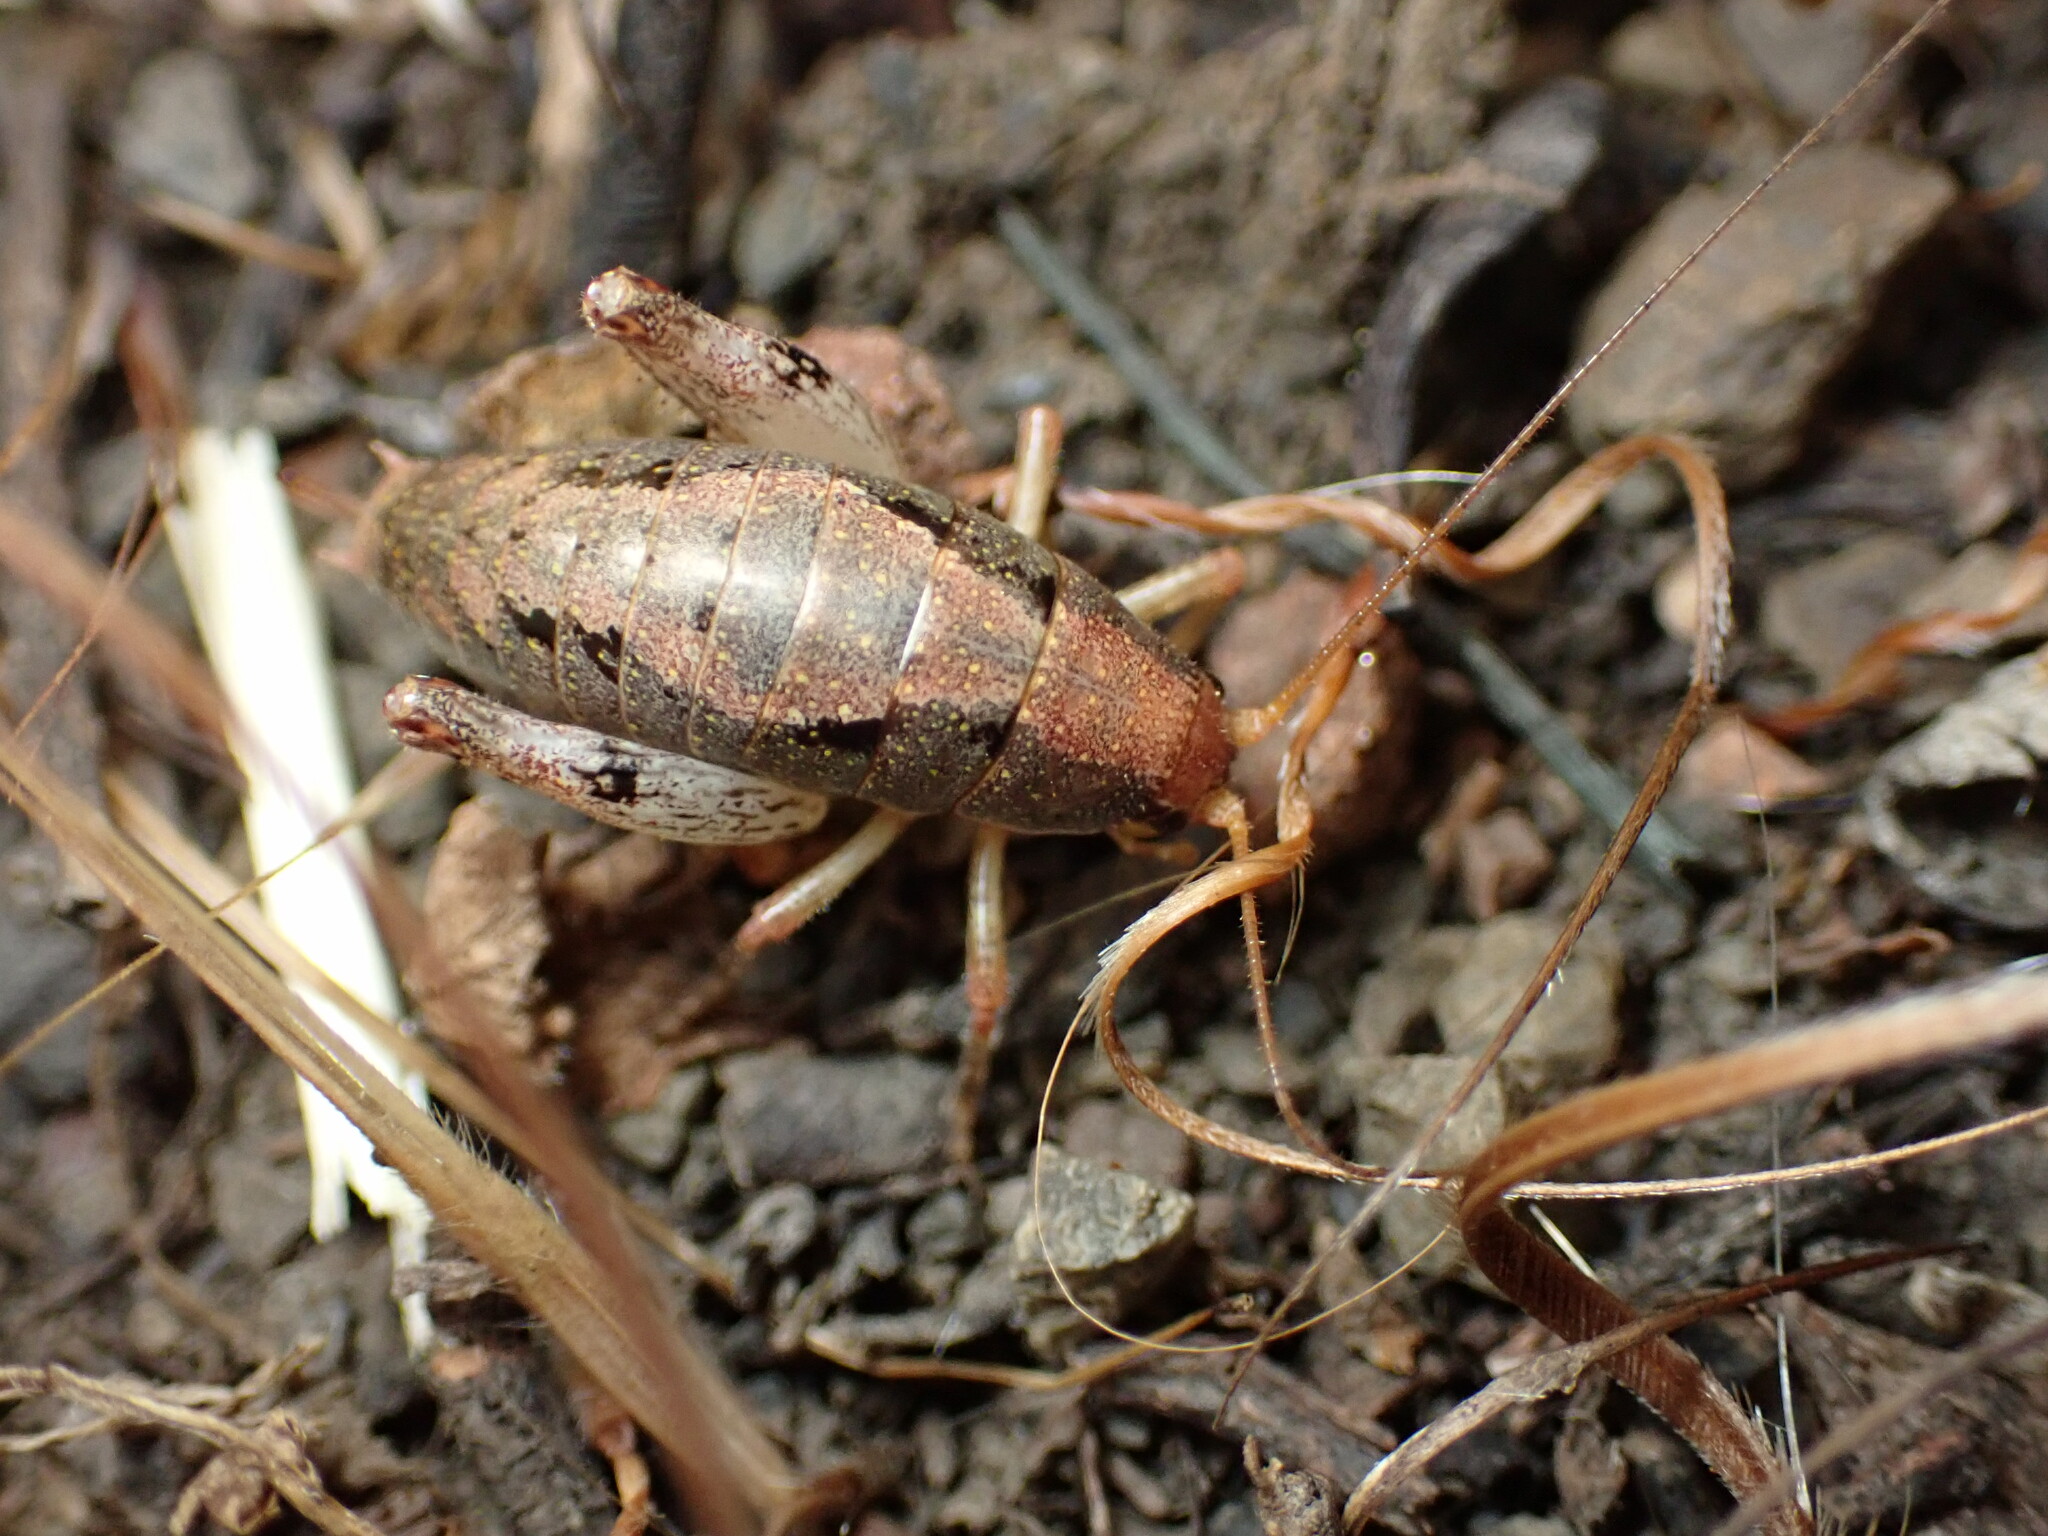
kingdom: Animalia
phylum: Arthropoda
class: Insecta
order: Orthoptera
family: Rhaphidophoridae
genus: Gammarotettix
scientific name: Gammarotettix genitalis
